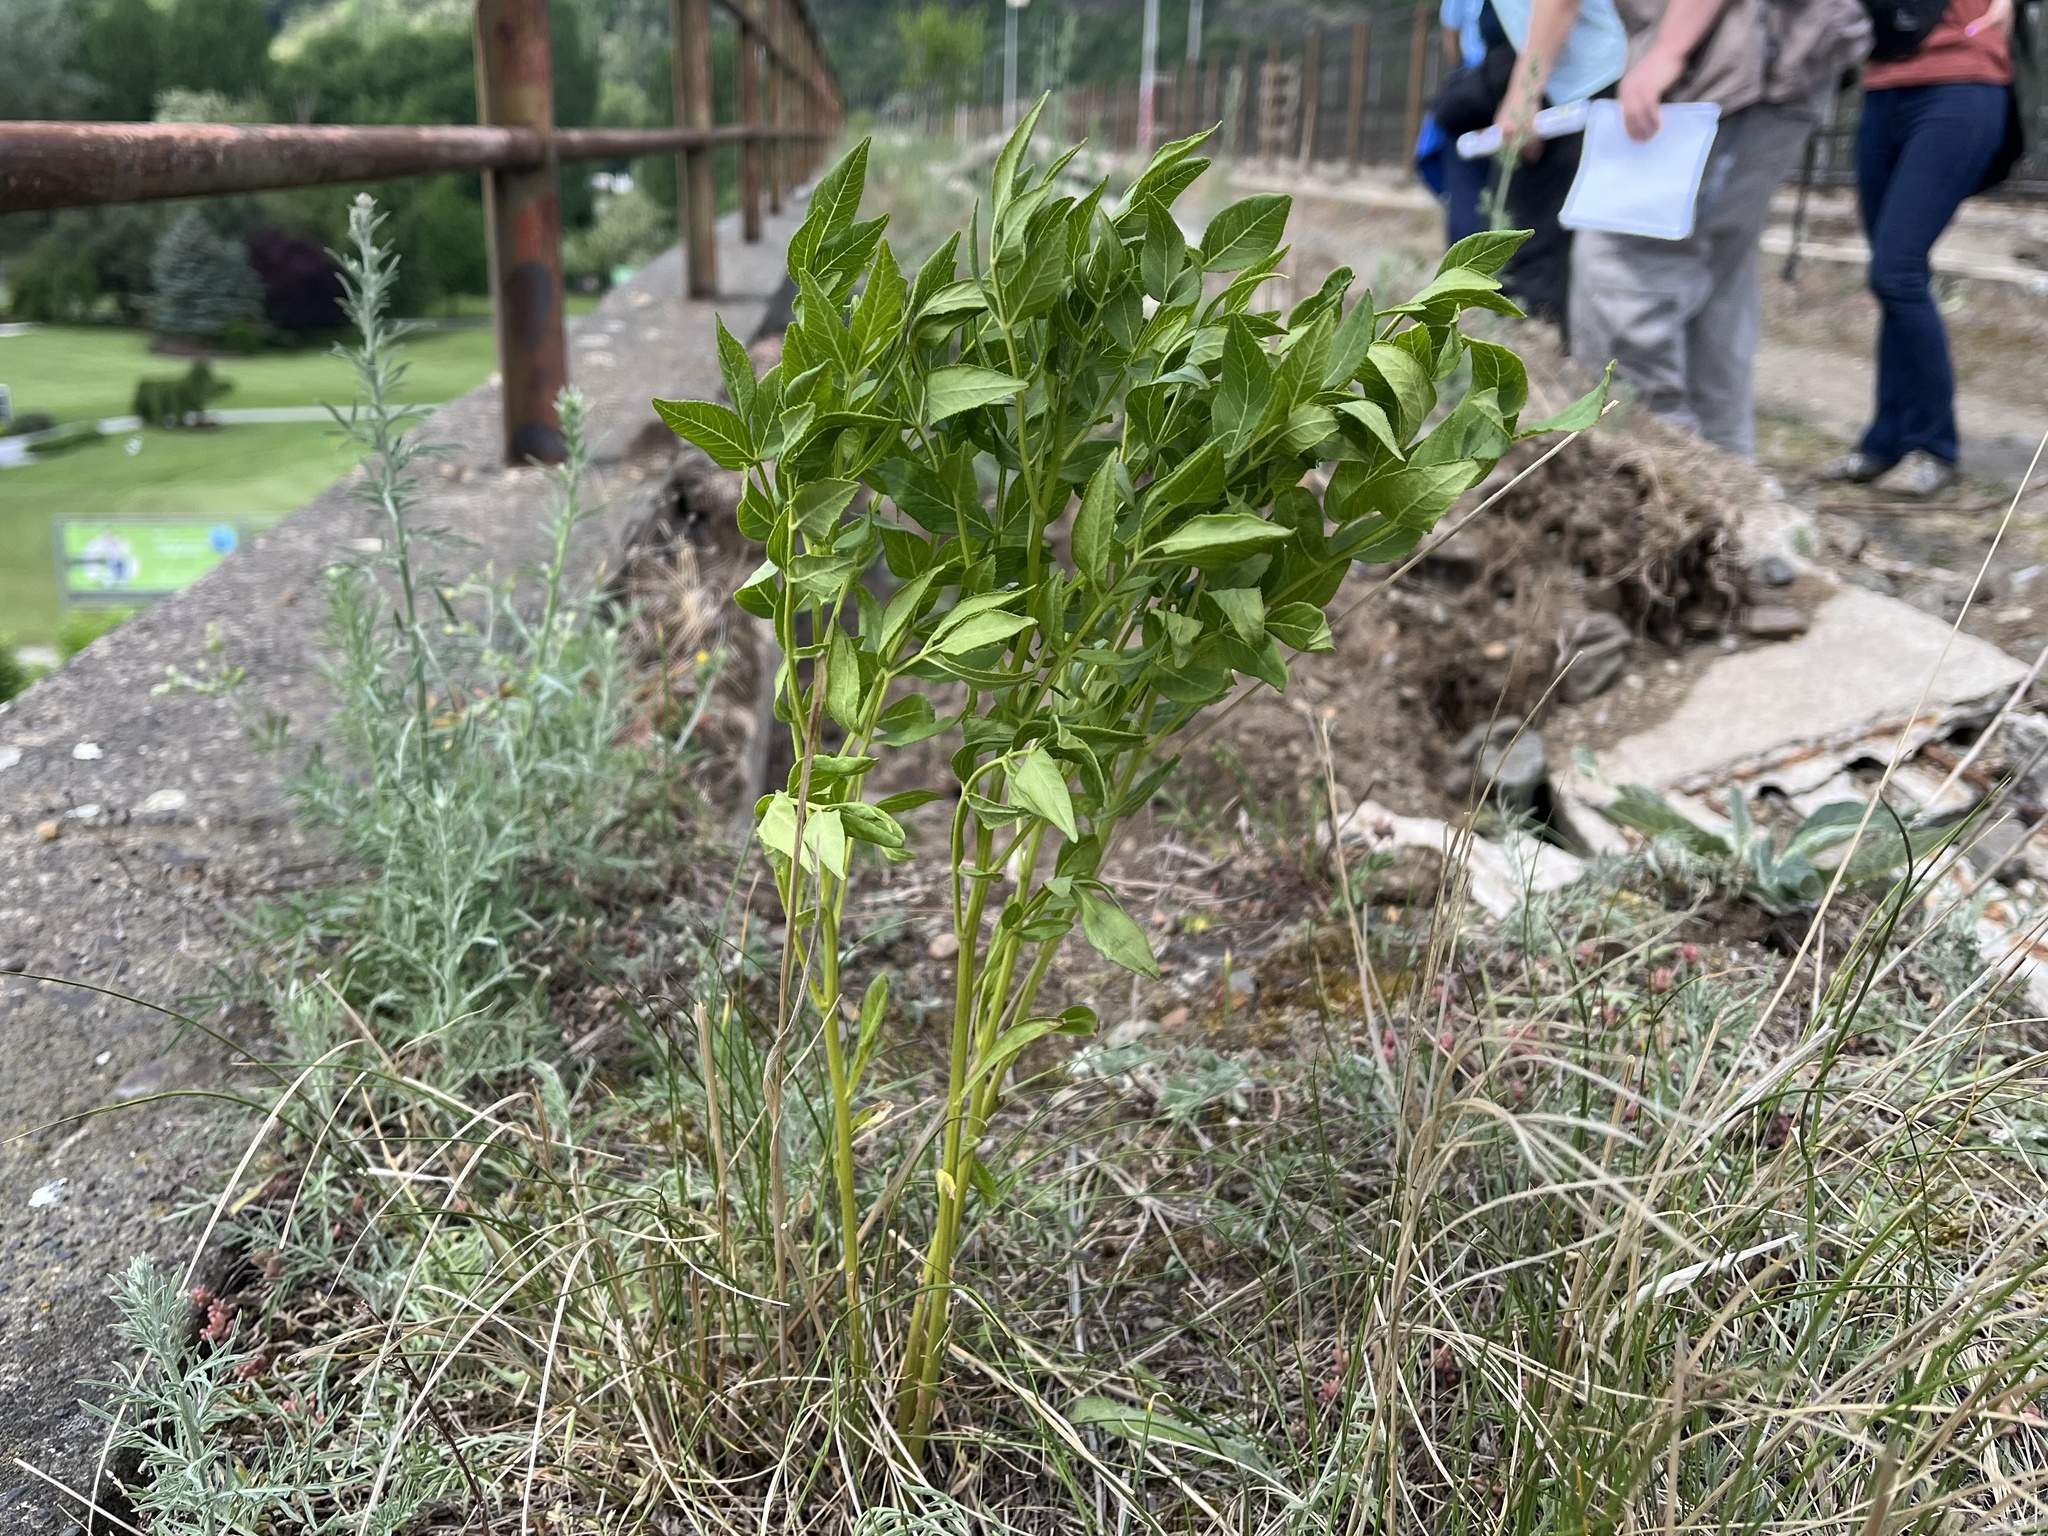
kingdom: Plantae
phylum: Tracheophyta
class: Magnoliopsida
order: Sapindales
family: Rutaceae
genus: Dictamnus
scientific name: Dictamnus albus
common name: Gasplant
